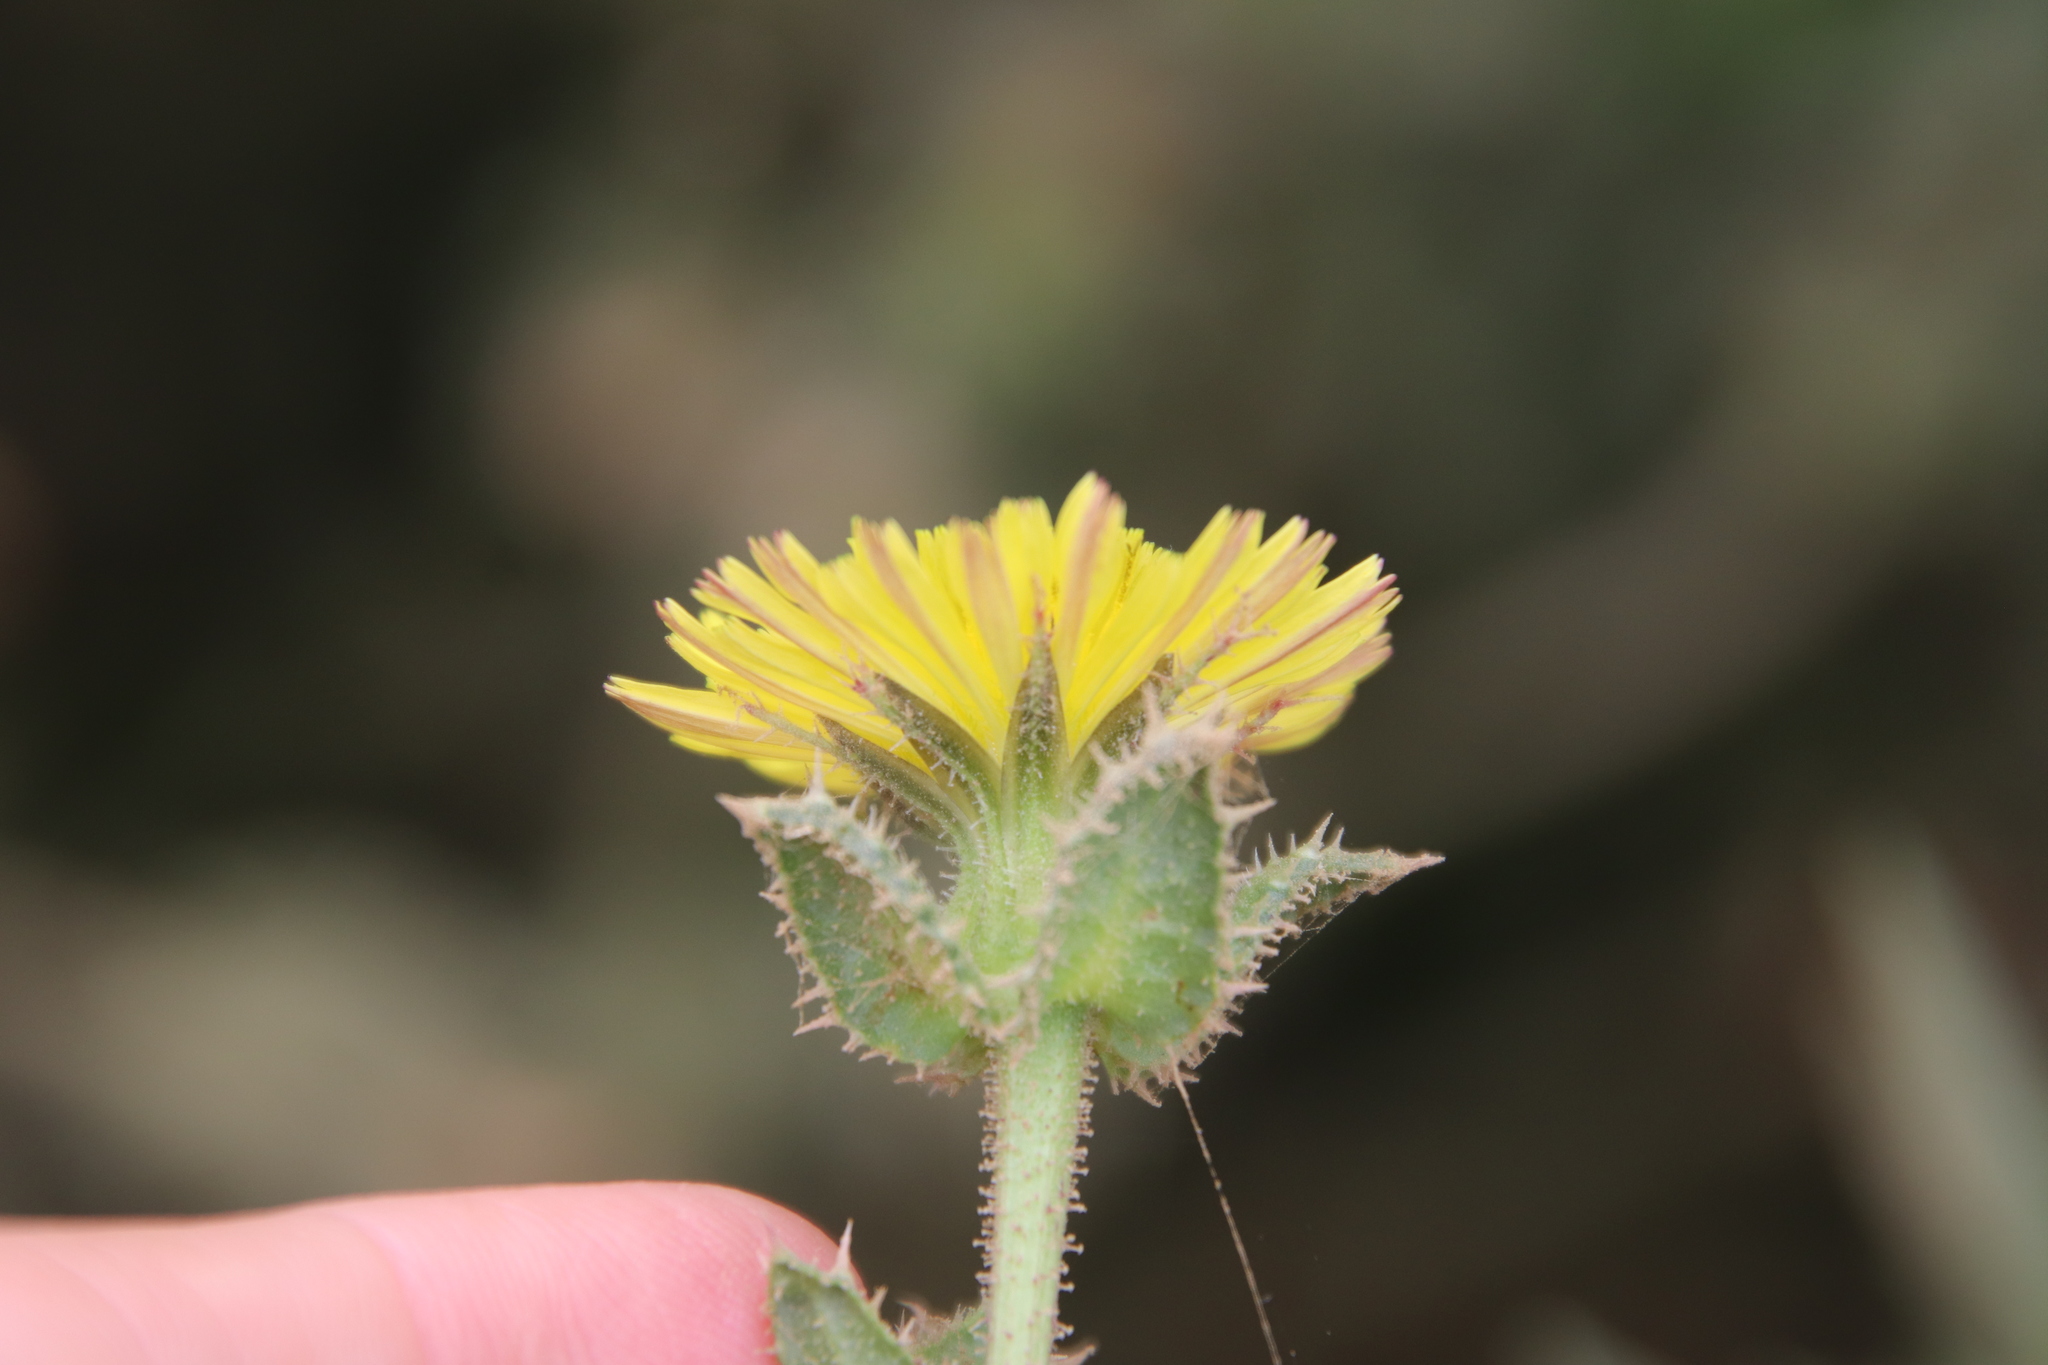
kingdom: Plantae
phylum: Tracheophyta
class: Magnoliopsida
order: Asterales
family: Asteraceae
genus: Helminthotheca
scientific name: Helminthotheca echioides
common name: Ox-tongue
